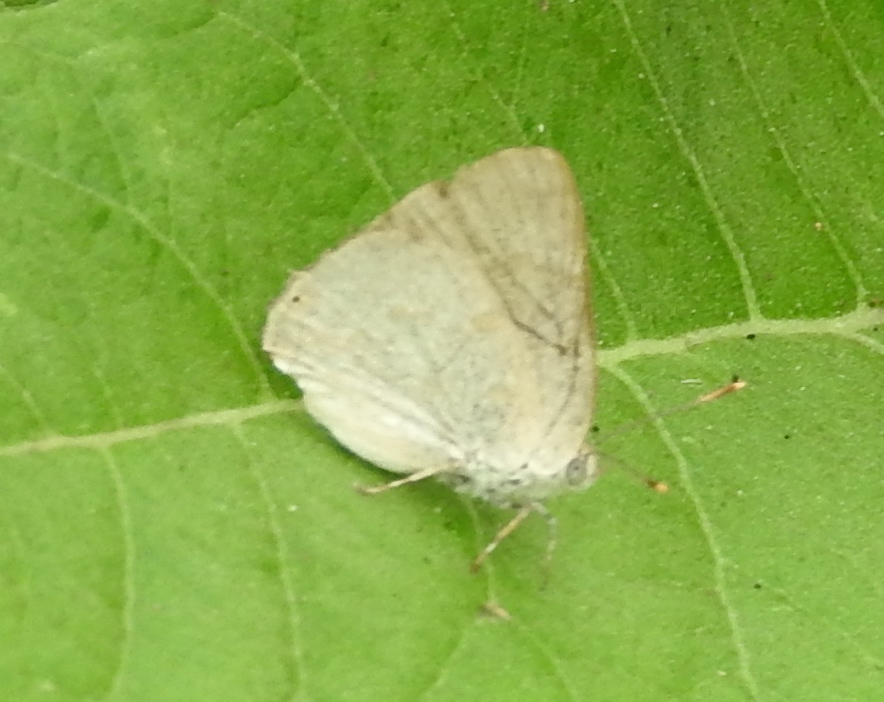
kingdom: Animalia
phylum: Arthropoda
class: Insecta
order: Lepidoptera
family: Lycaenidae
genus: Tmolus
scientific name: Tmolus echion
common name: Red-spotted hairstreak
